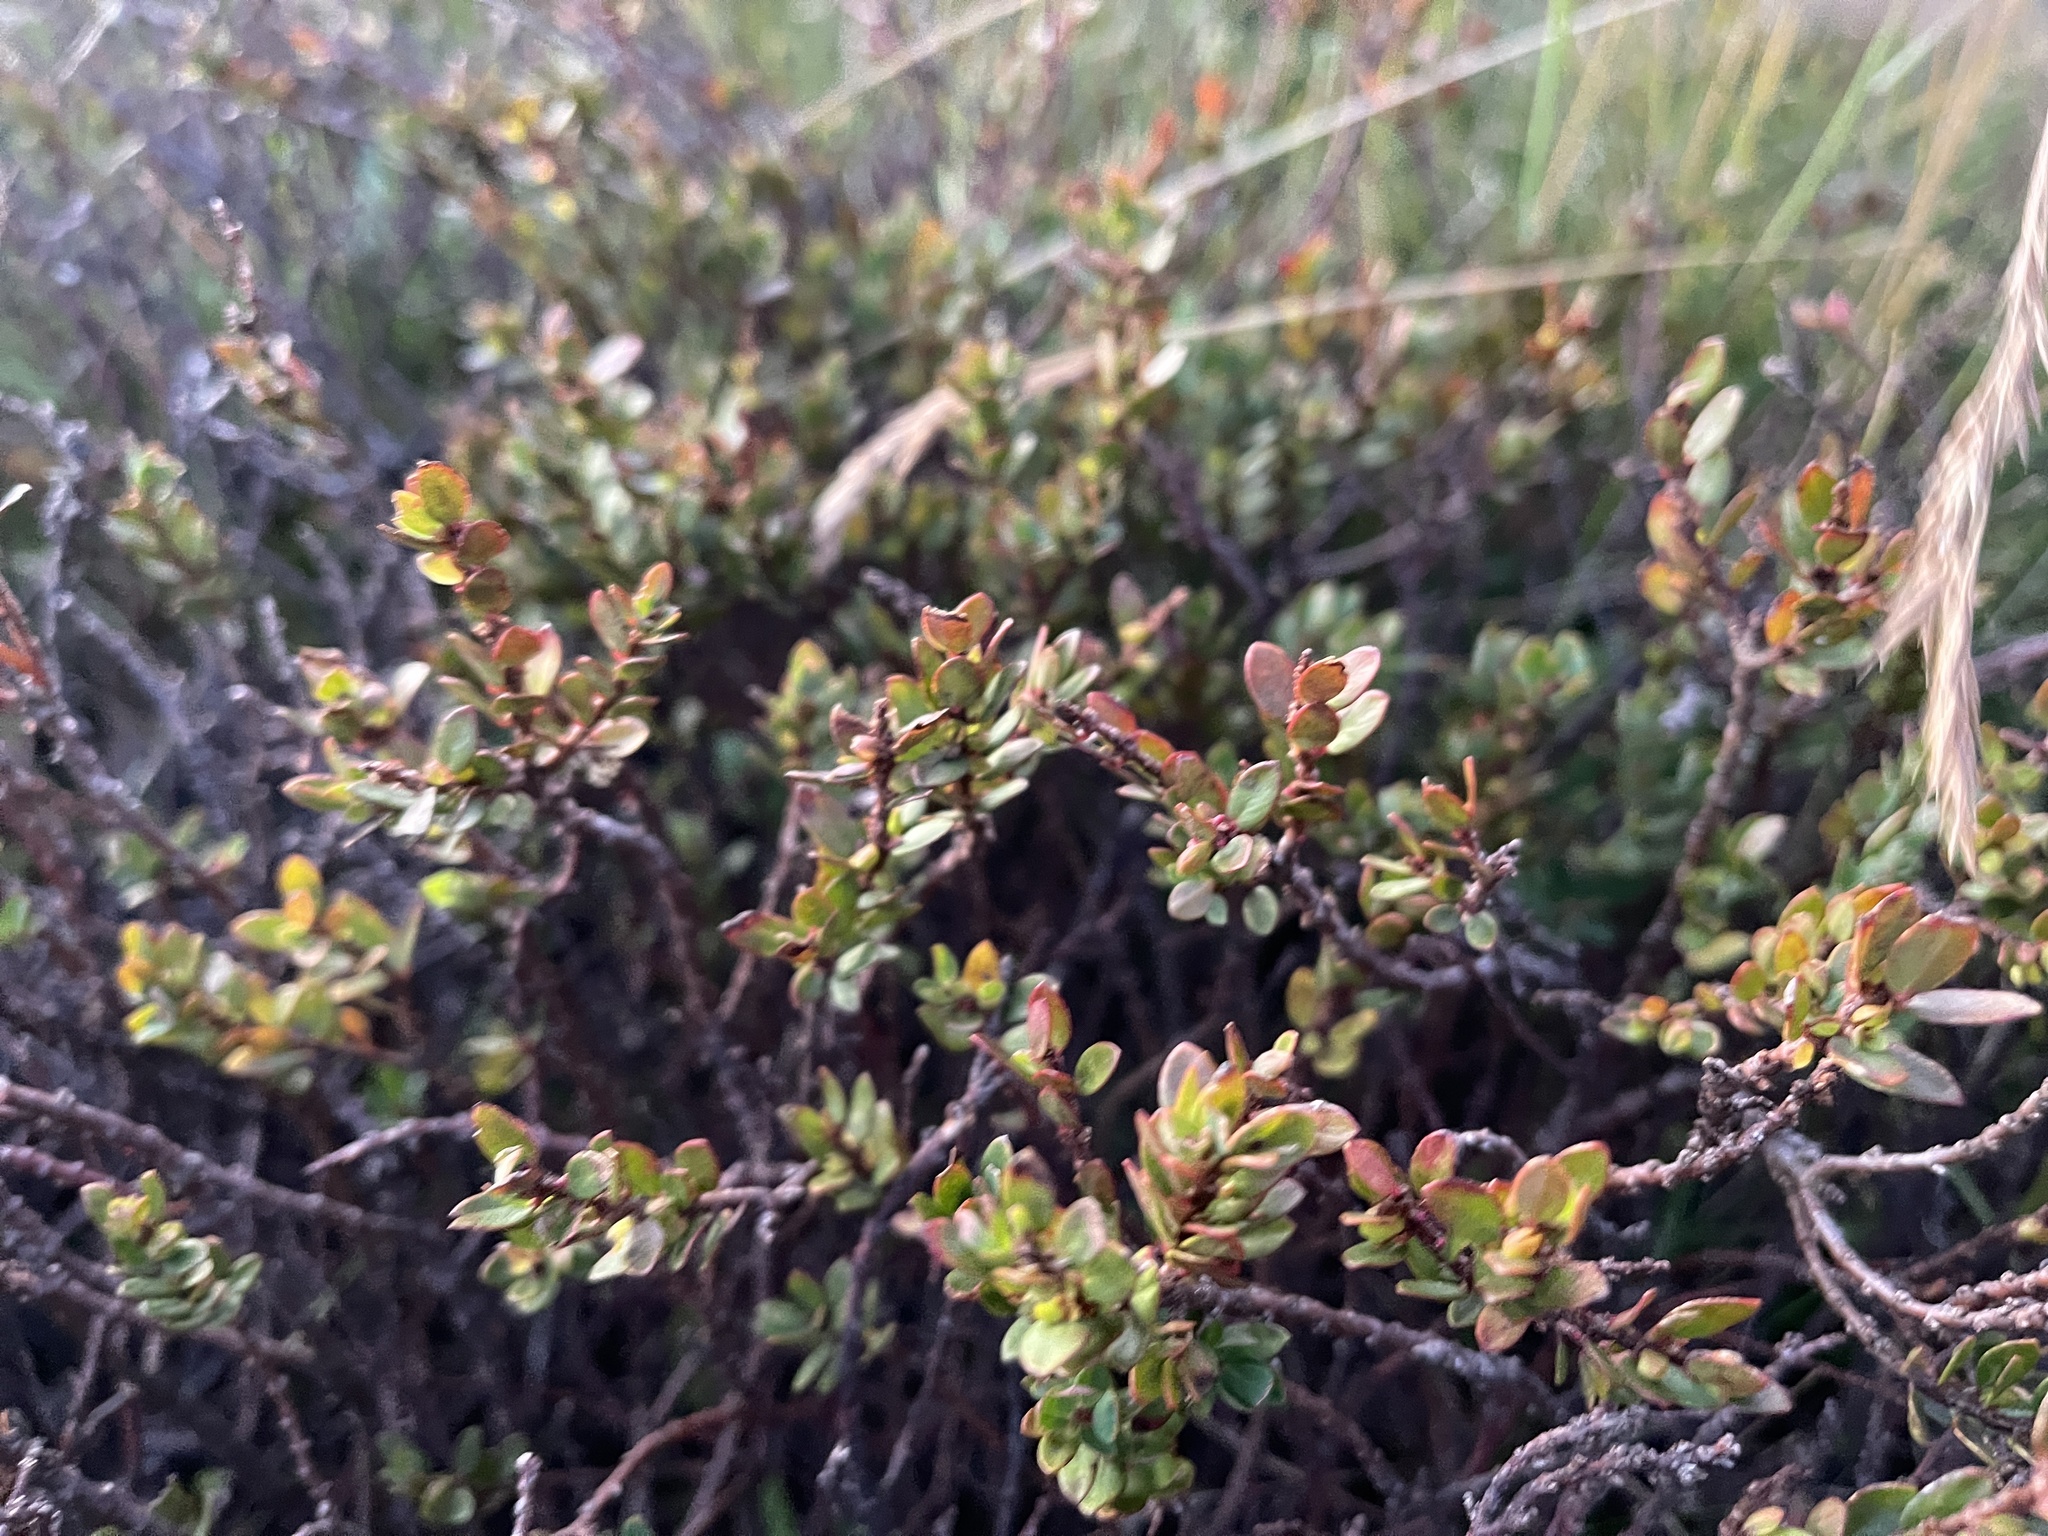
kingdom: Plantae
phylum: Tracheophyta
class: Magnoliopsida
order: Malvales
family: Thymelaeaceae
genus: Pimelea
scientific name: Pimelea axiflora
